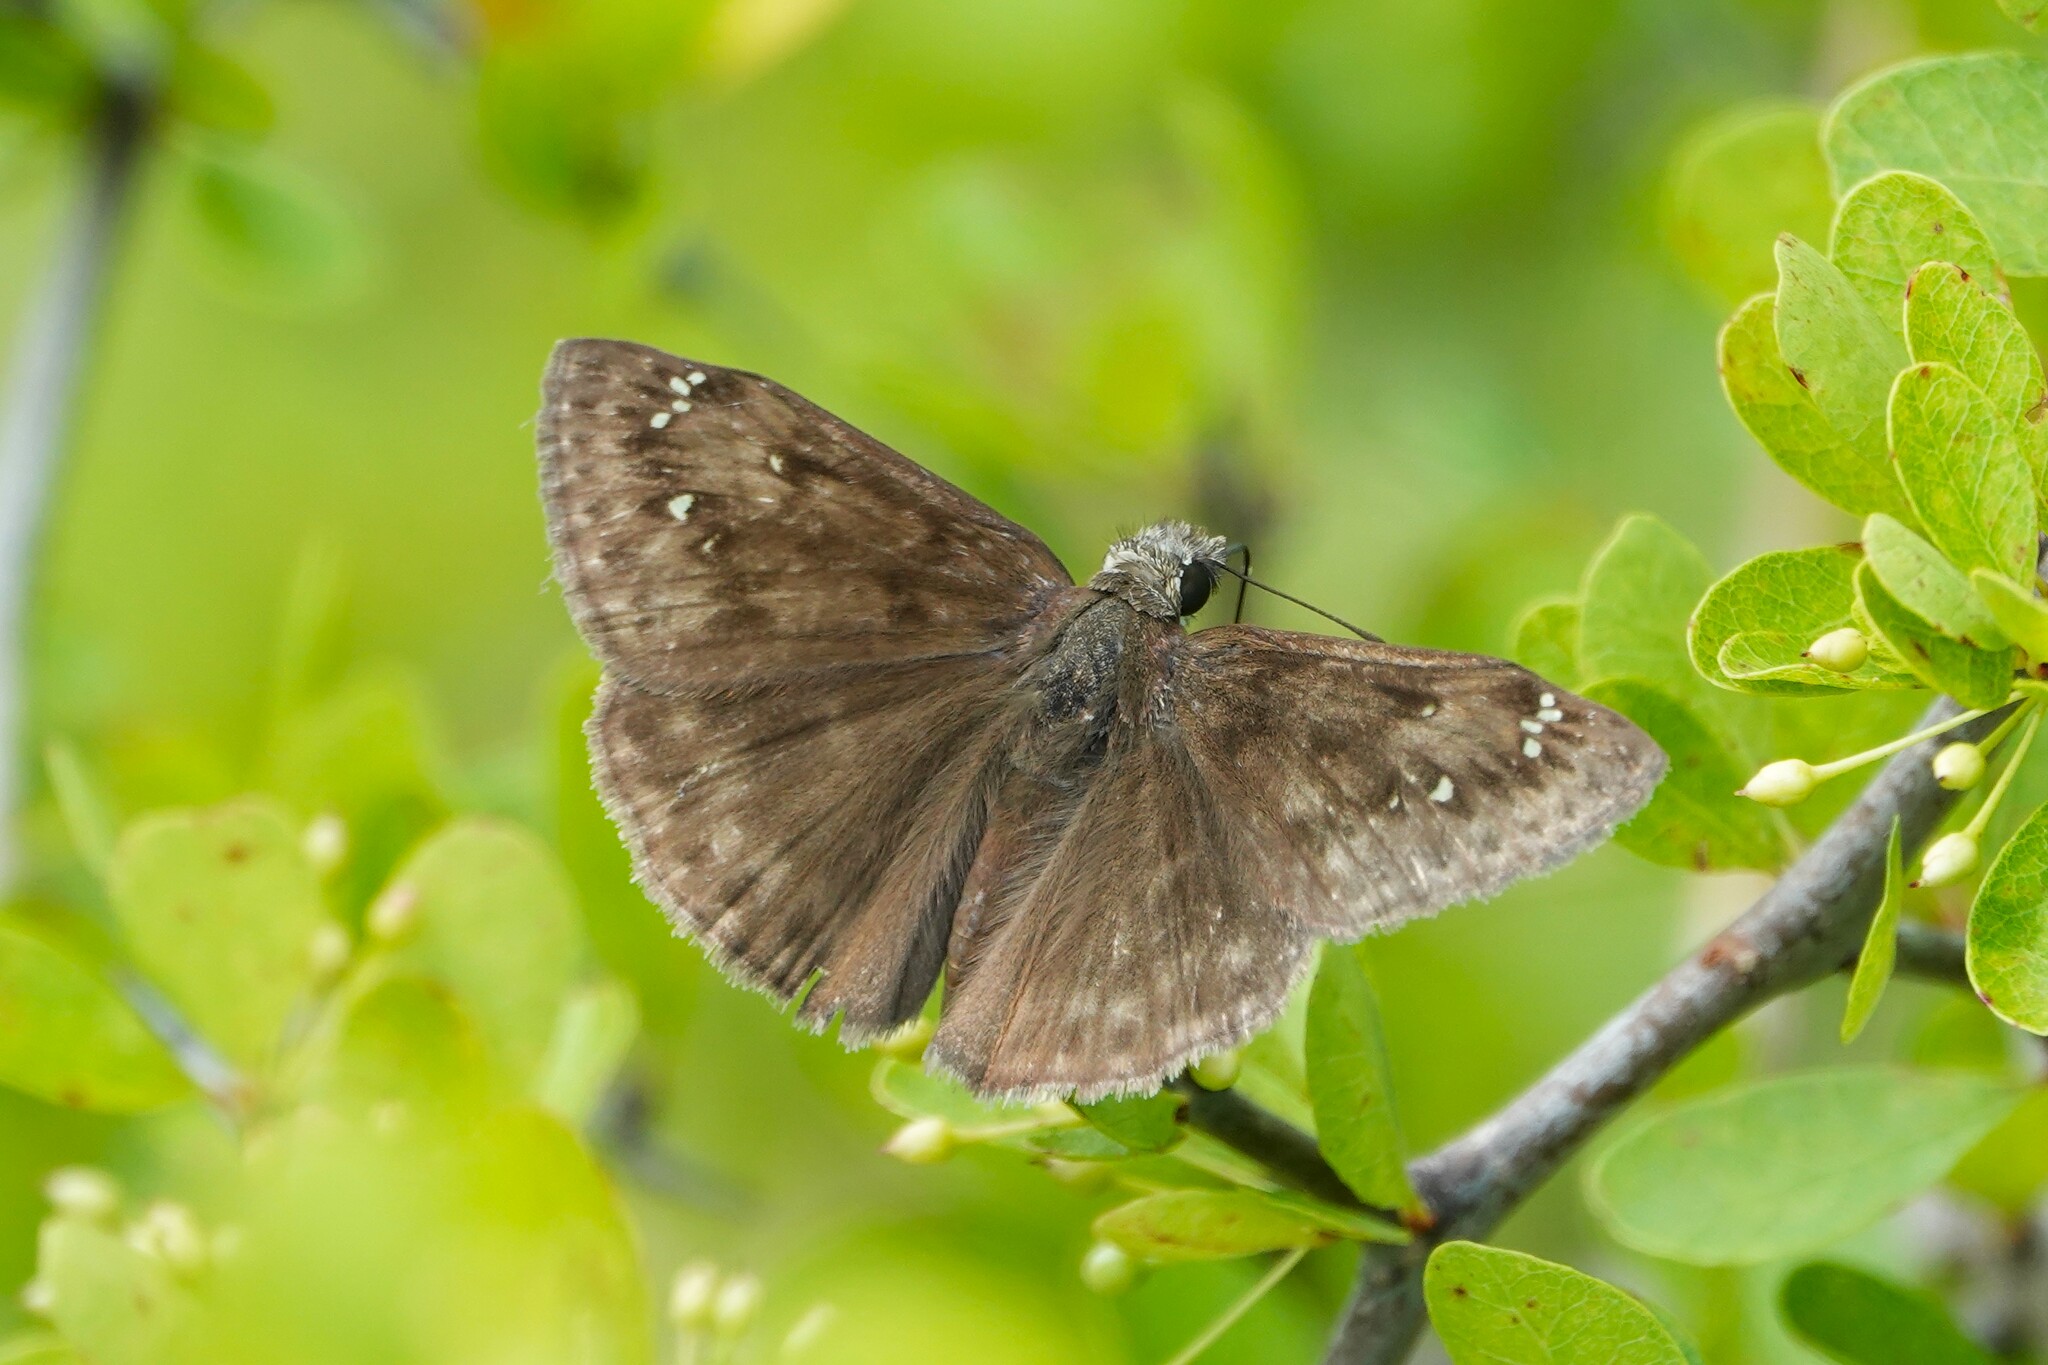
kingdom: Animalia
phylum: Arthropoda
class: Insecta
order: Lepidoptera
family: Hesperiidae
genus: Erynnis
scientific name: Erynnis horatius
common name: Horace's duskywing
